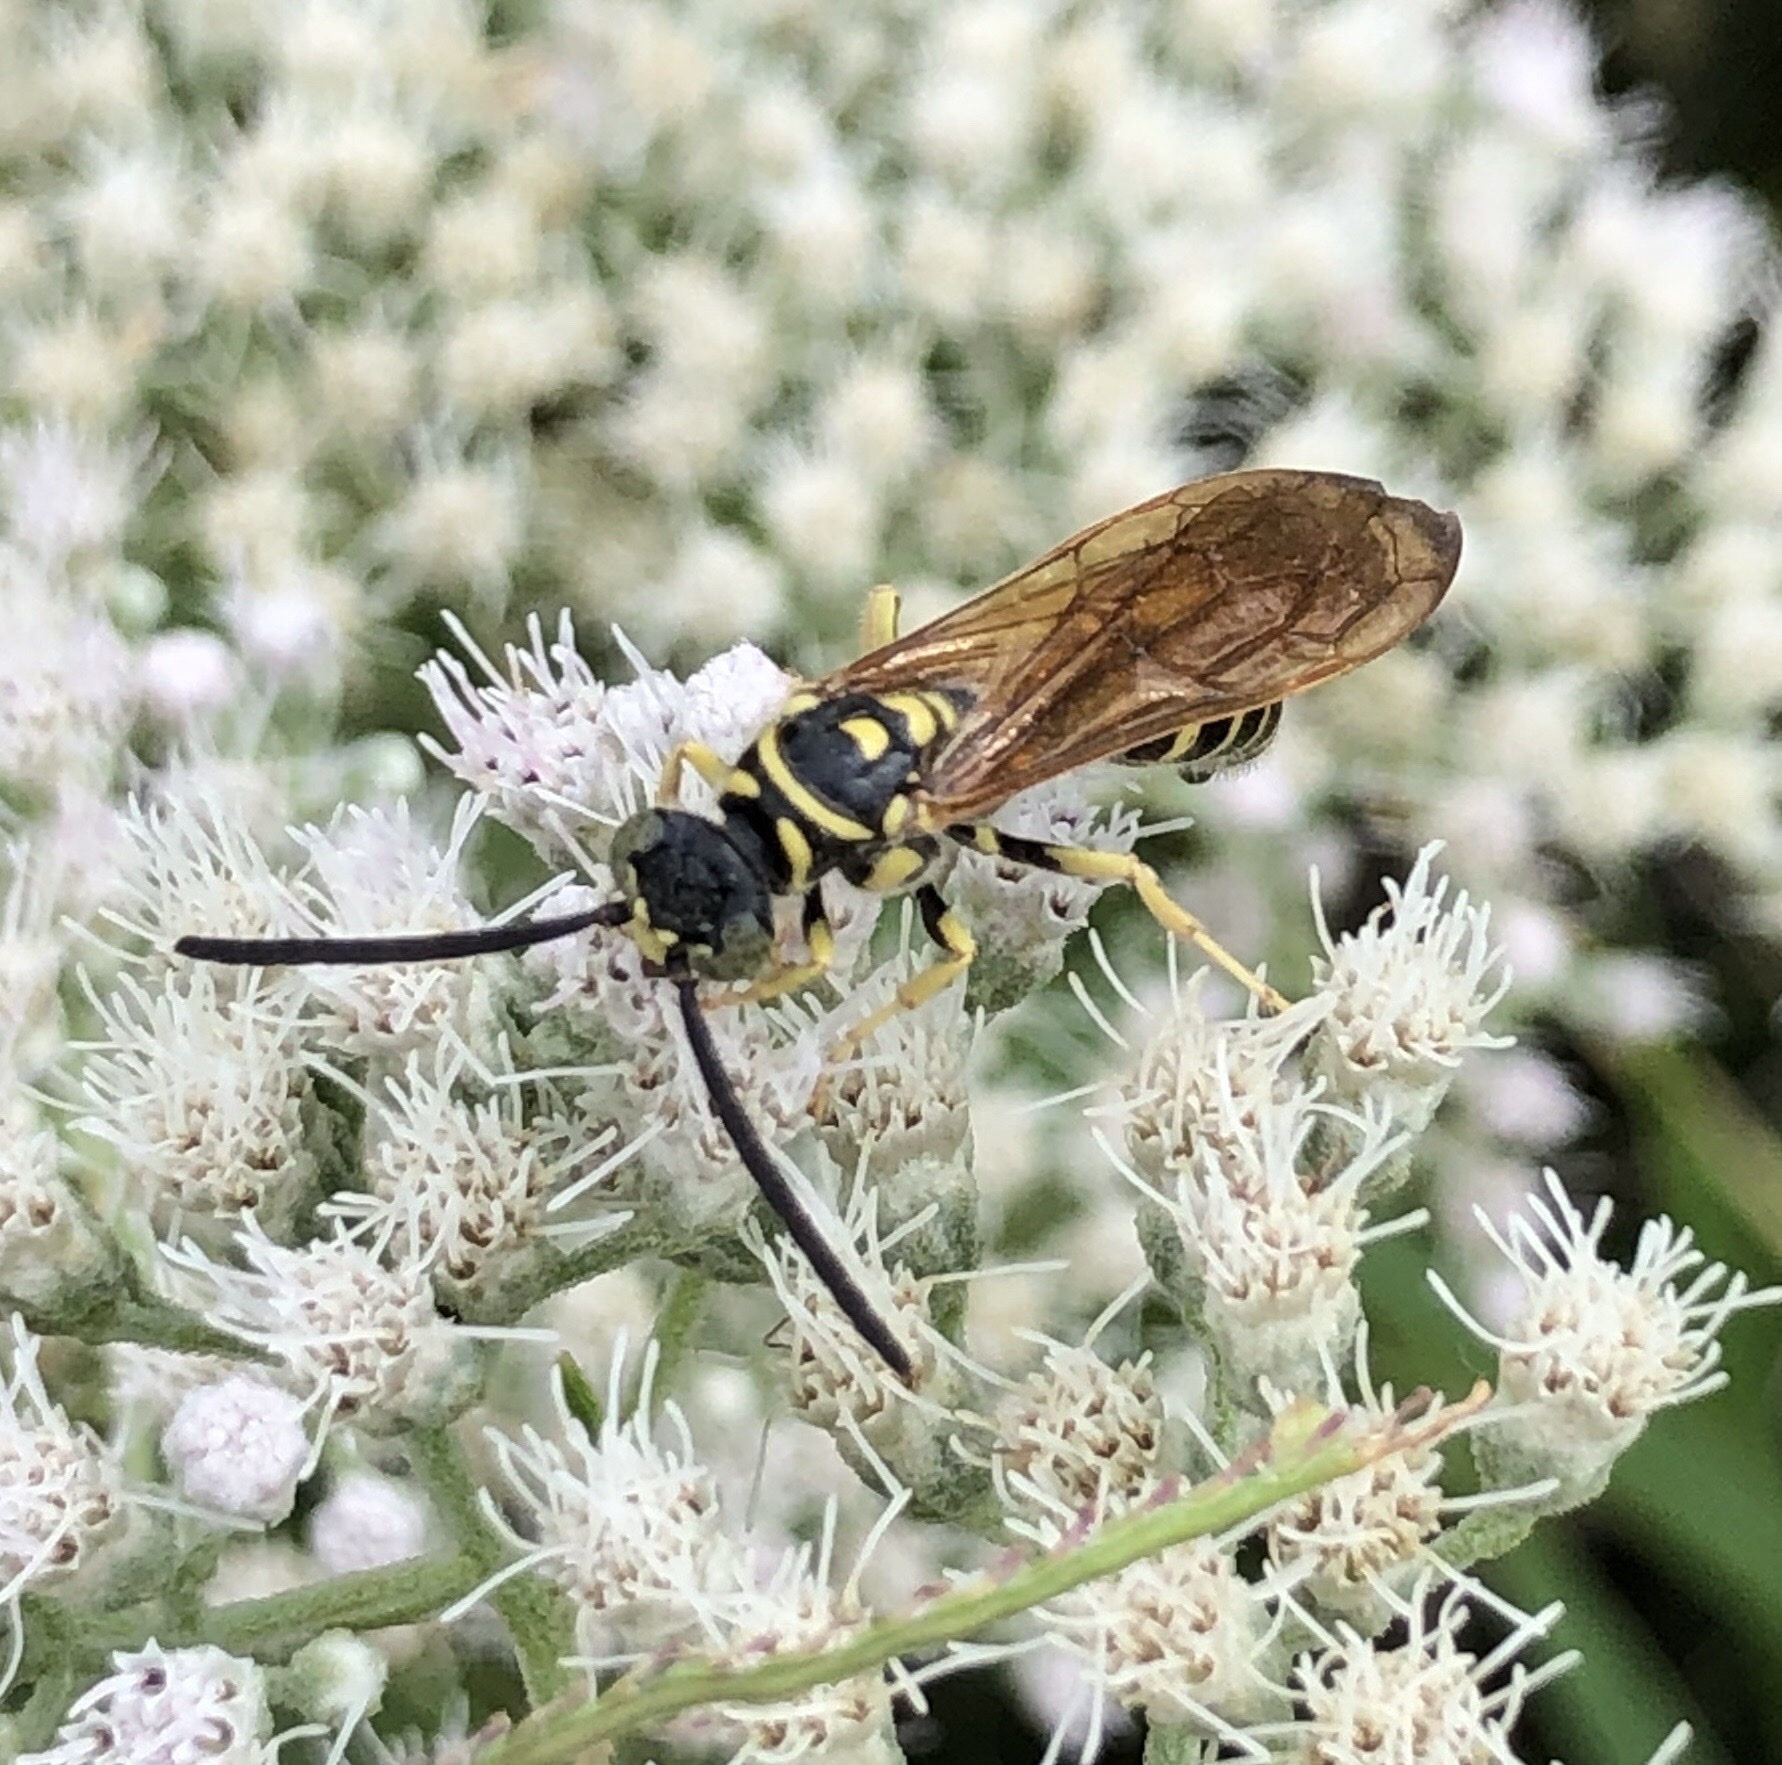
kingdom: Animalia
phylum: Arthropoda
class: Insecta
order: Hymenoptera
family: Tiphiidae
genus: Myzinum
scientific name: Myzinum quinquecinctum
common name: Five-banded thynnid wasp
